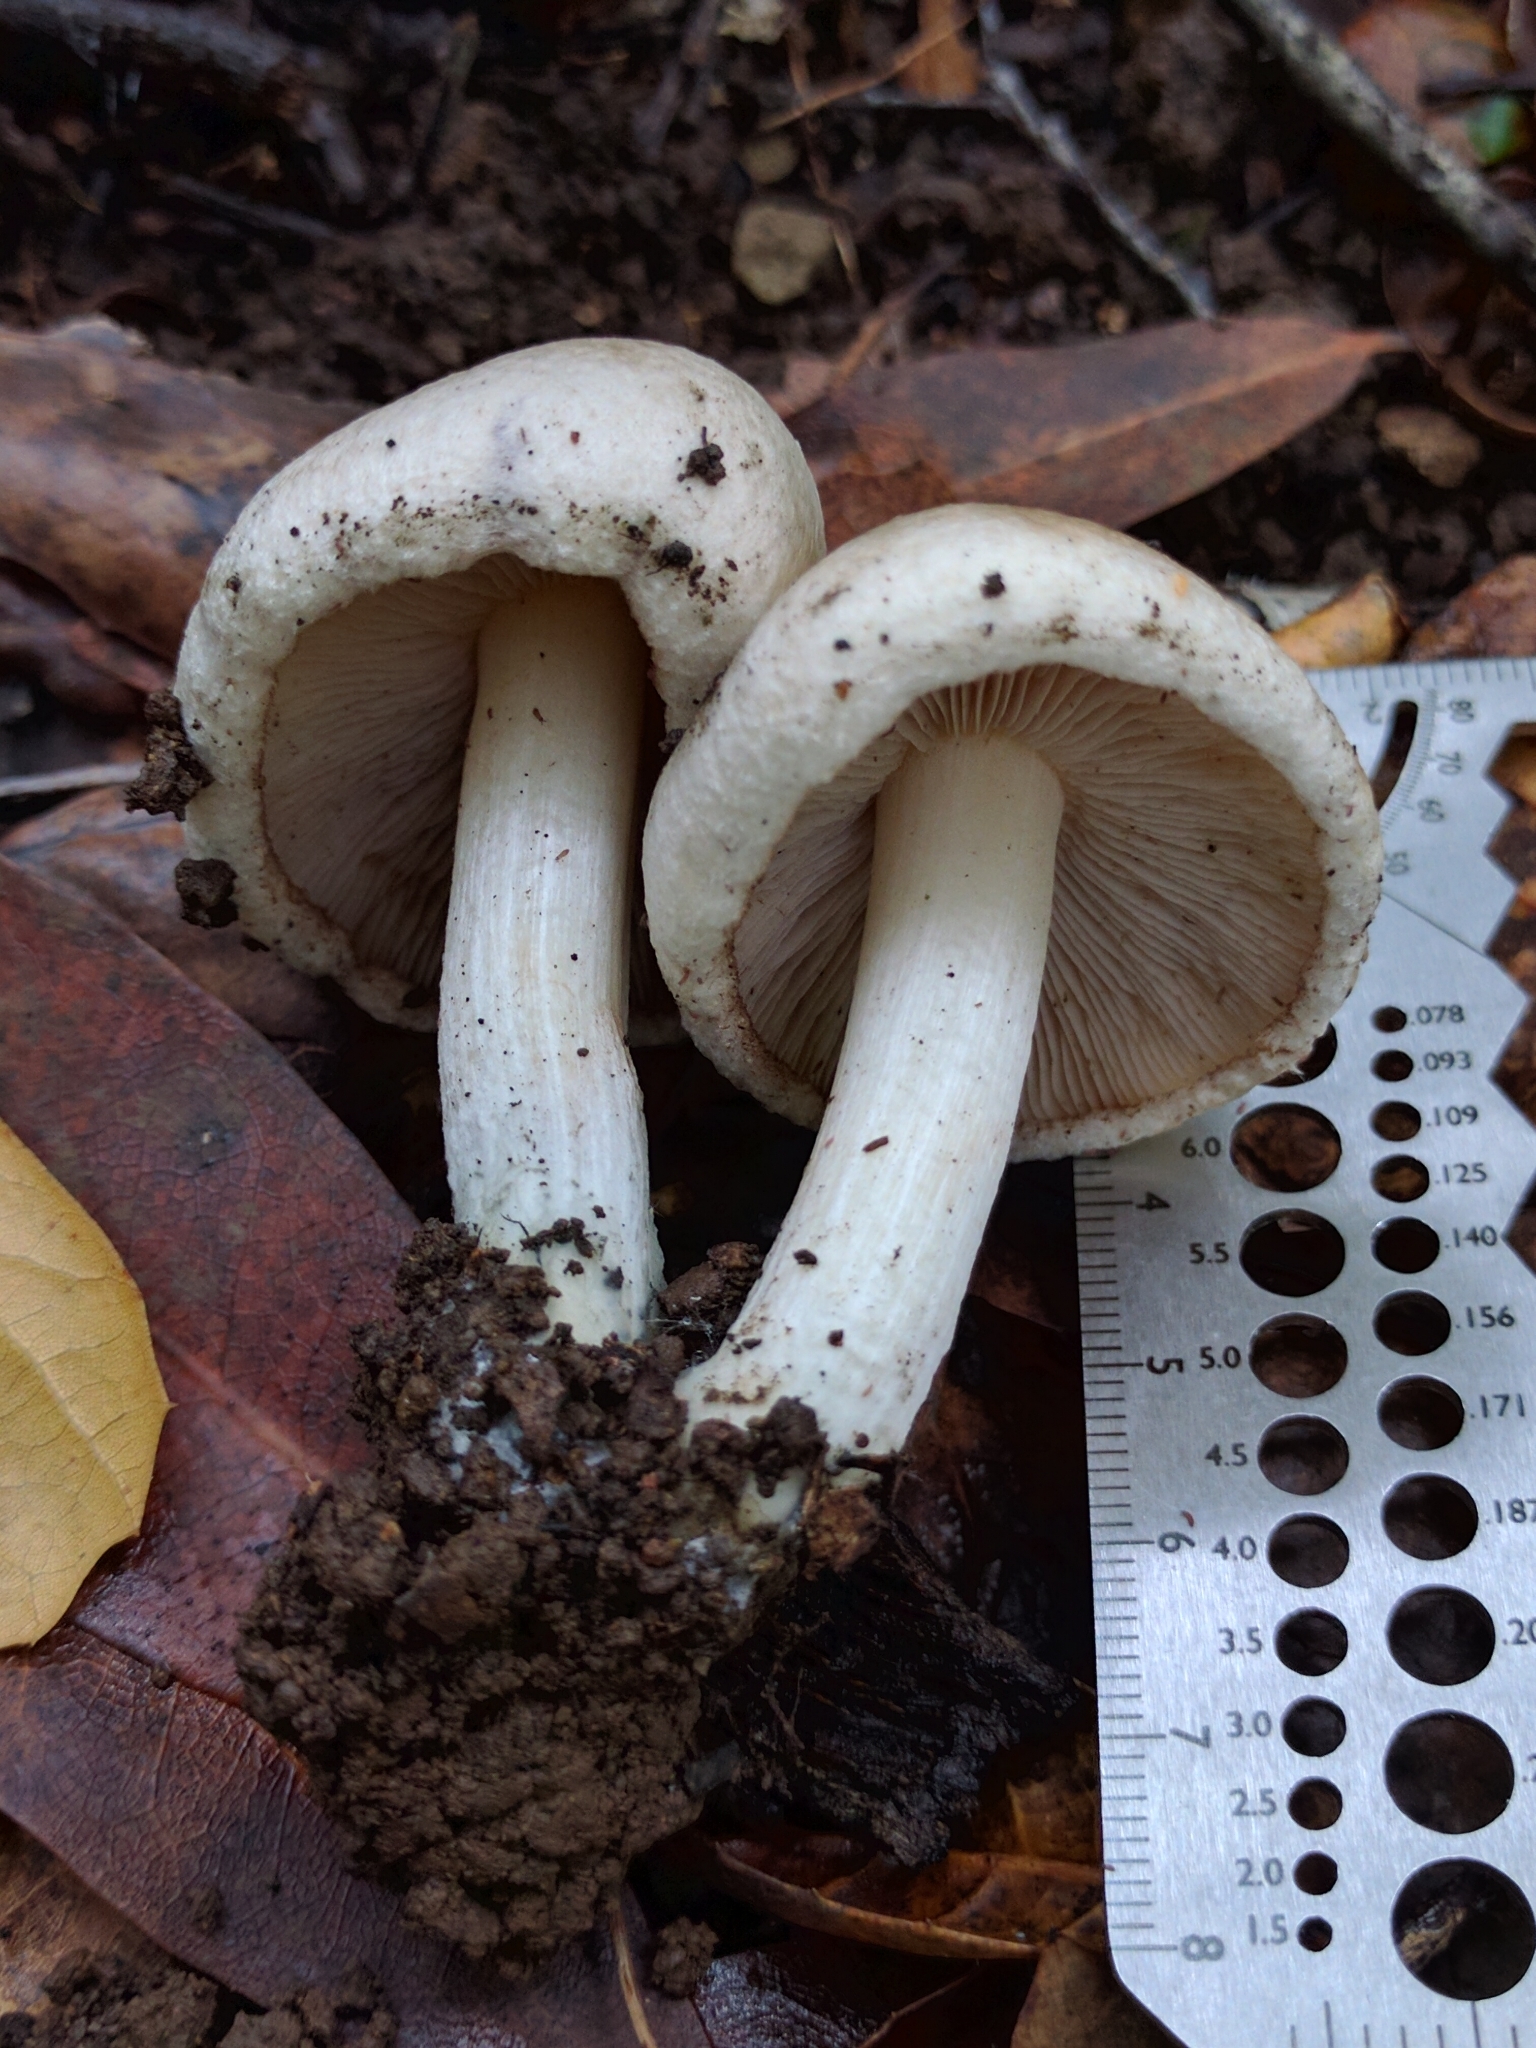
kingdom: Fungi
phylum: Basidiomycota
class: Agaricomycetes
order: Agaricales
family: Inocybaceae
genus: Inocybe
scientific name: Inocybe corydalina
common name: Greenflush fibrecap
